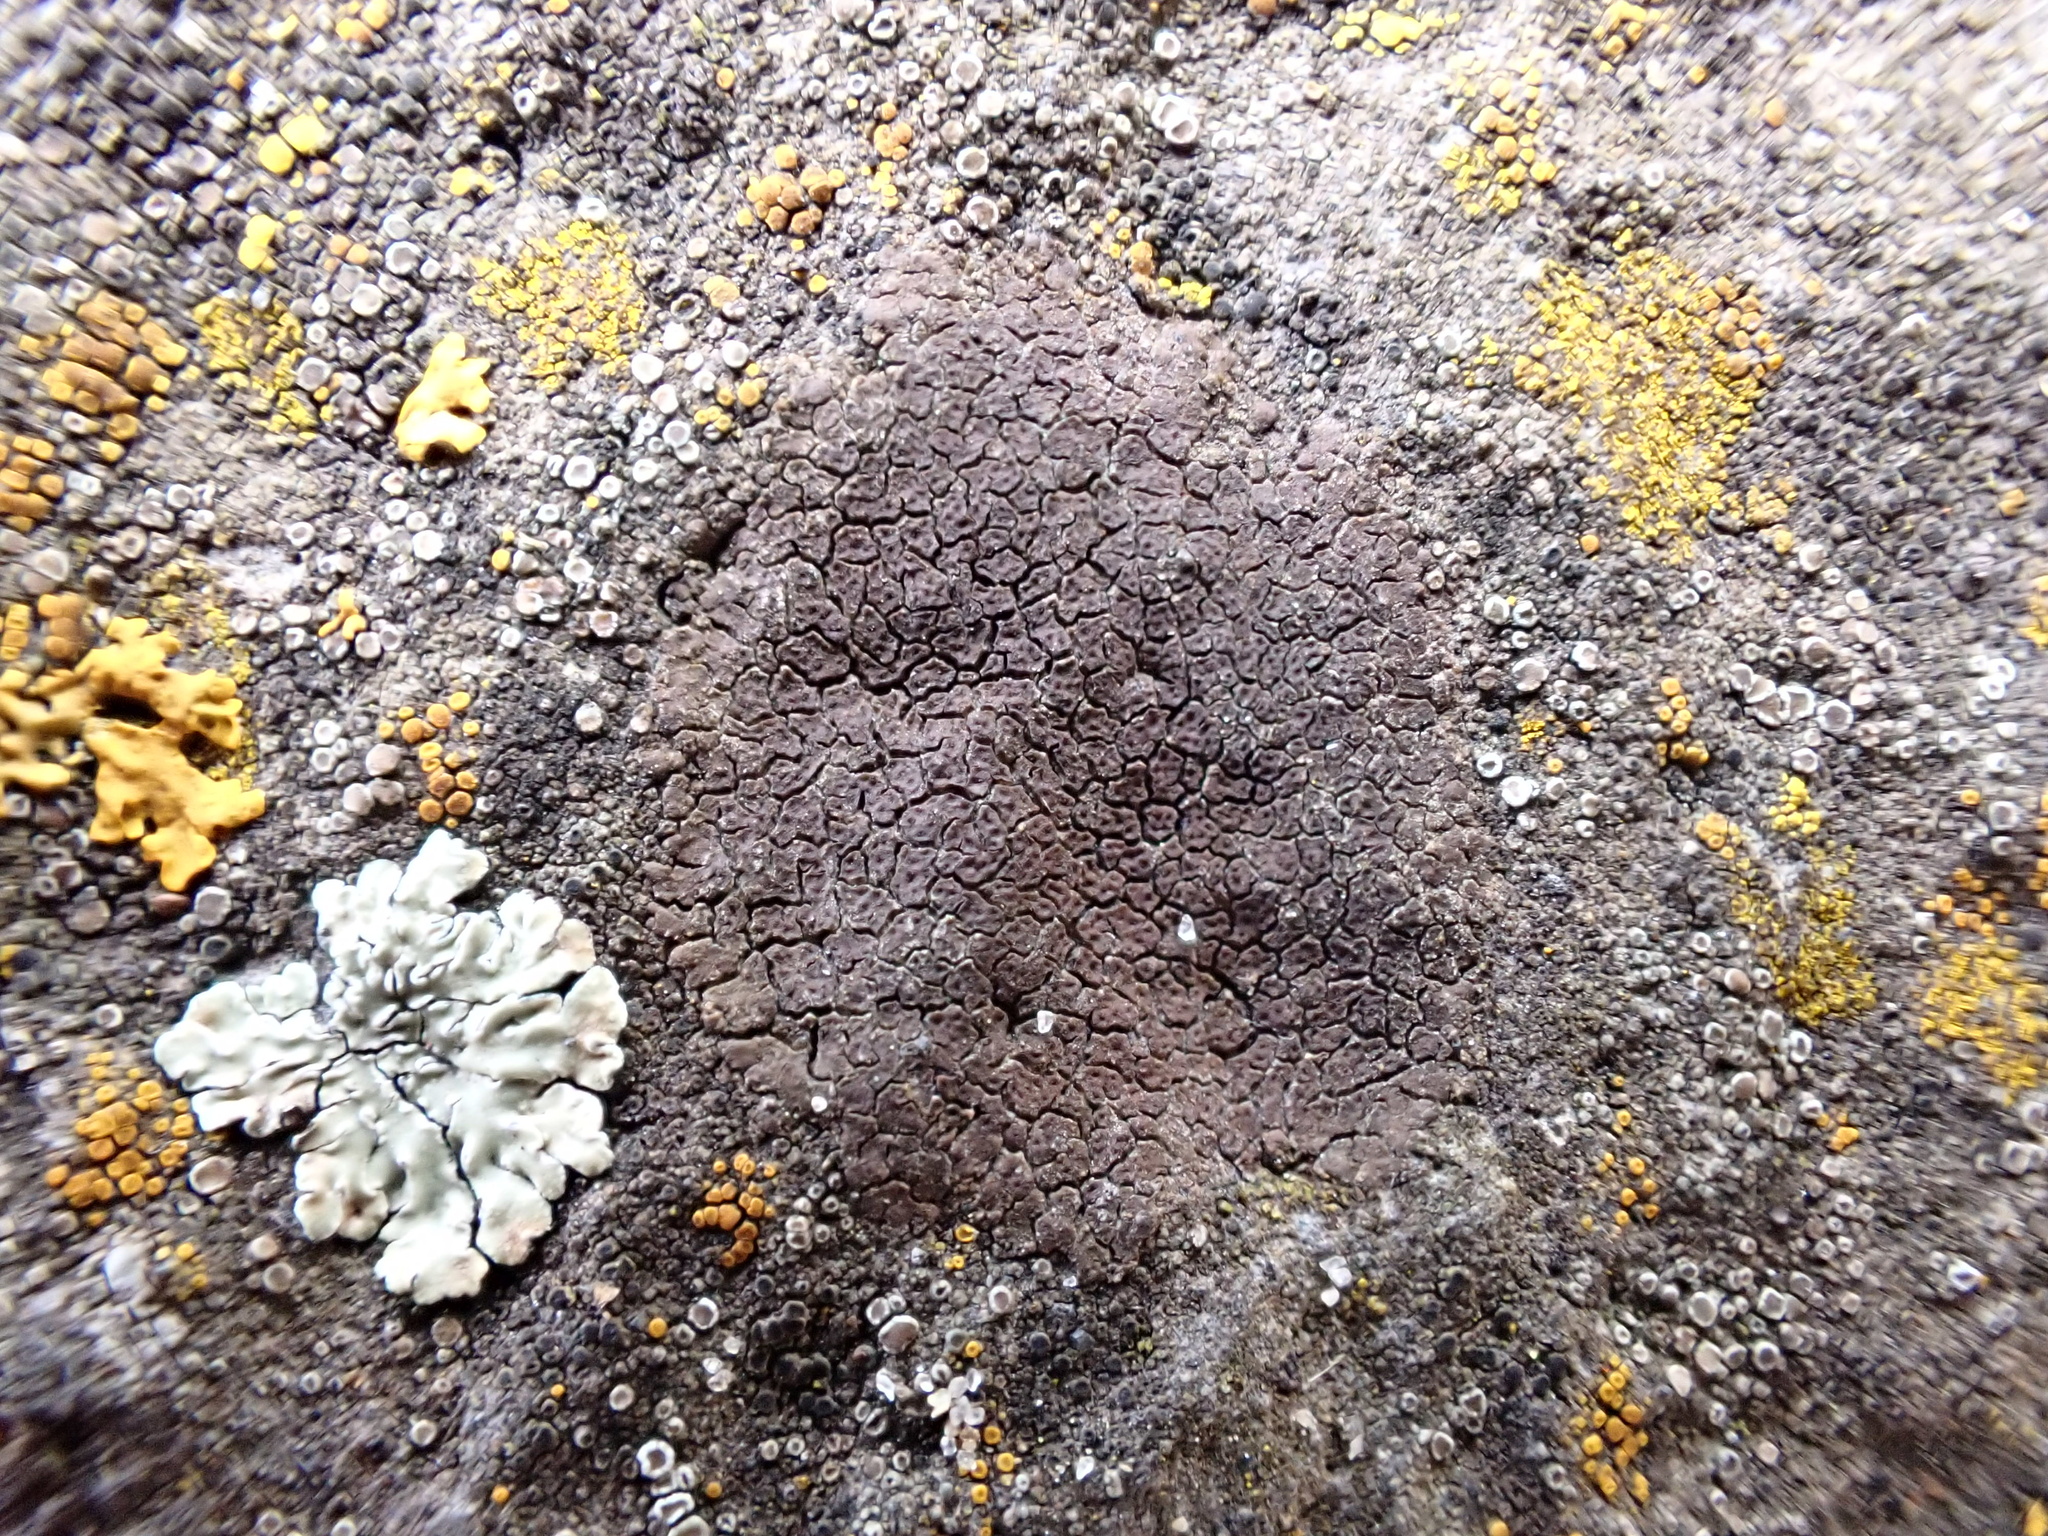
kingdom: Fungi
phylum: Ascomycota
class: Lecanoromycetes
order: Acarosporales
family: Acarosporaceae
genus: Acarospora
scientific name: Acarospora veronensis
